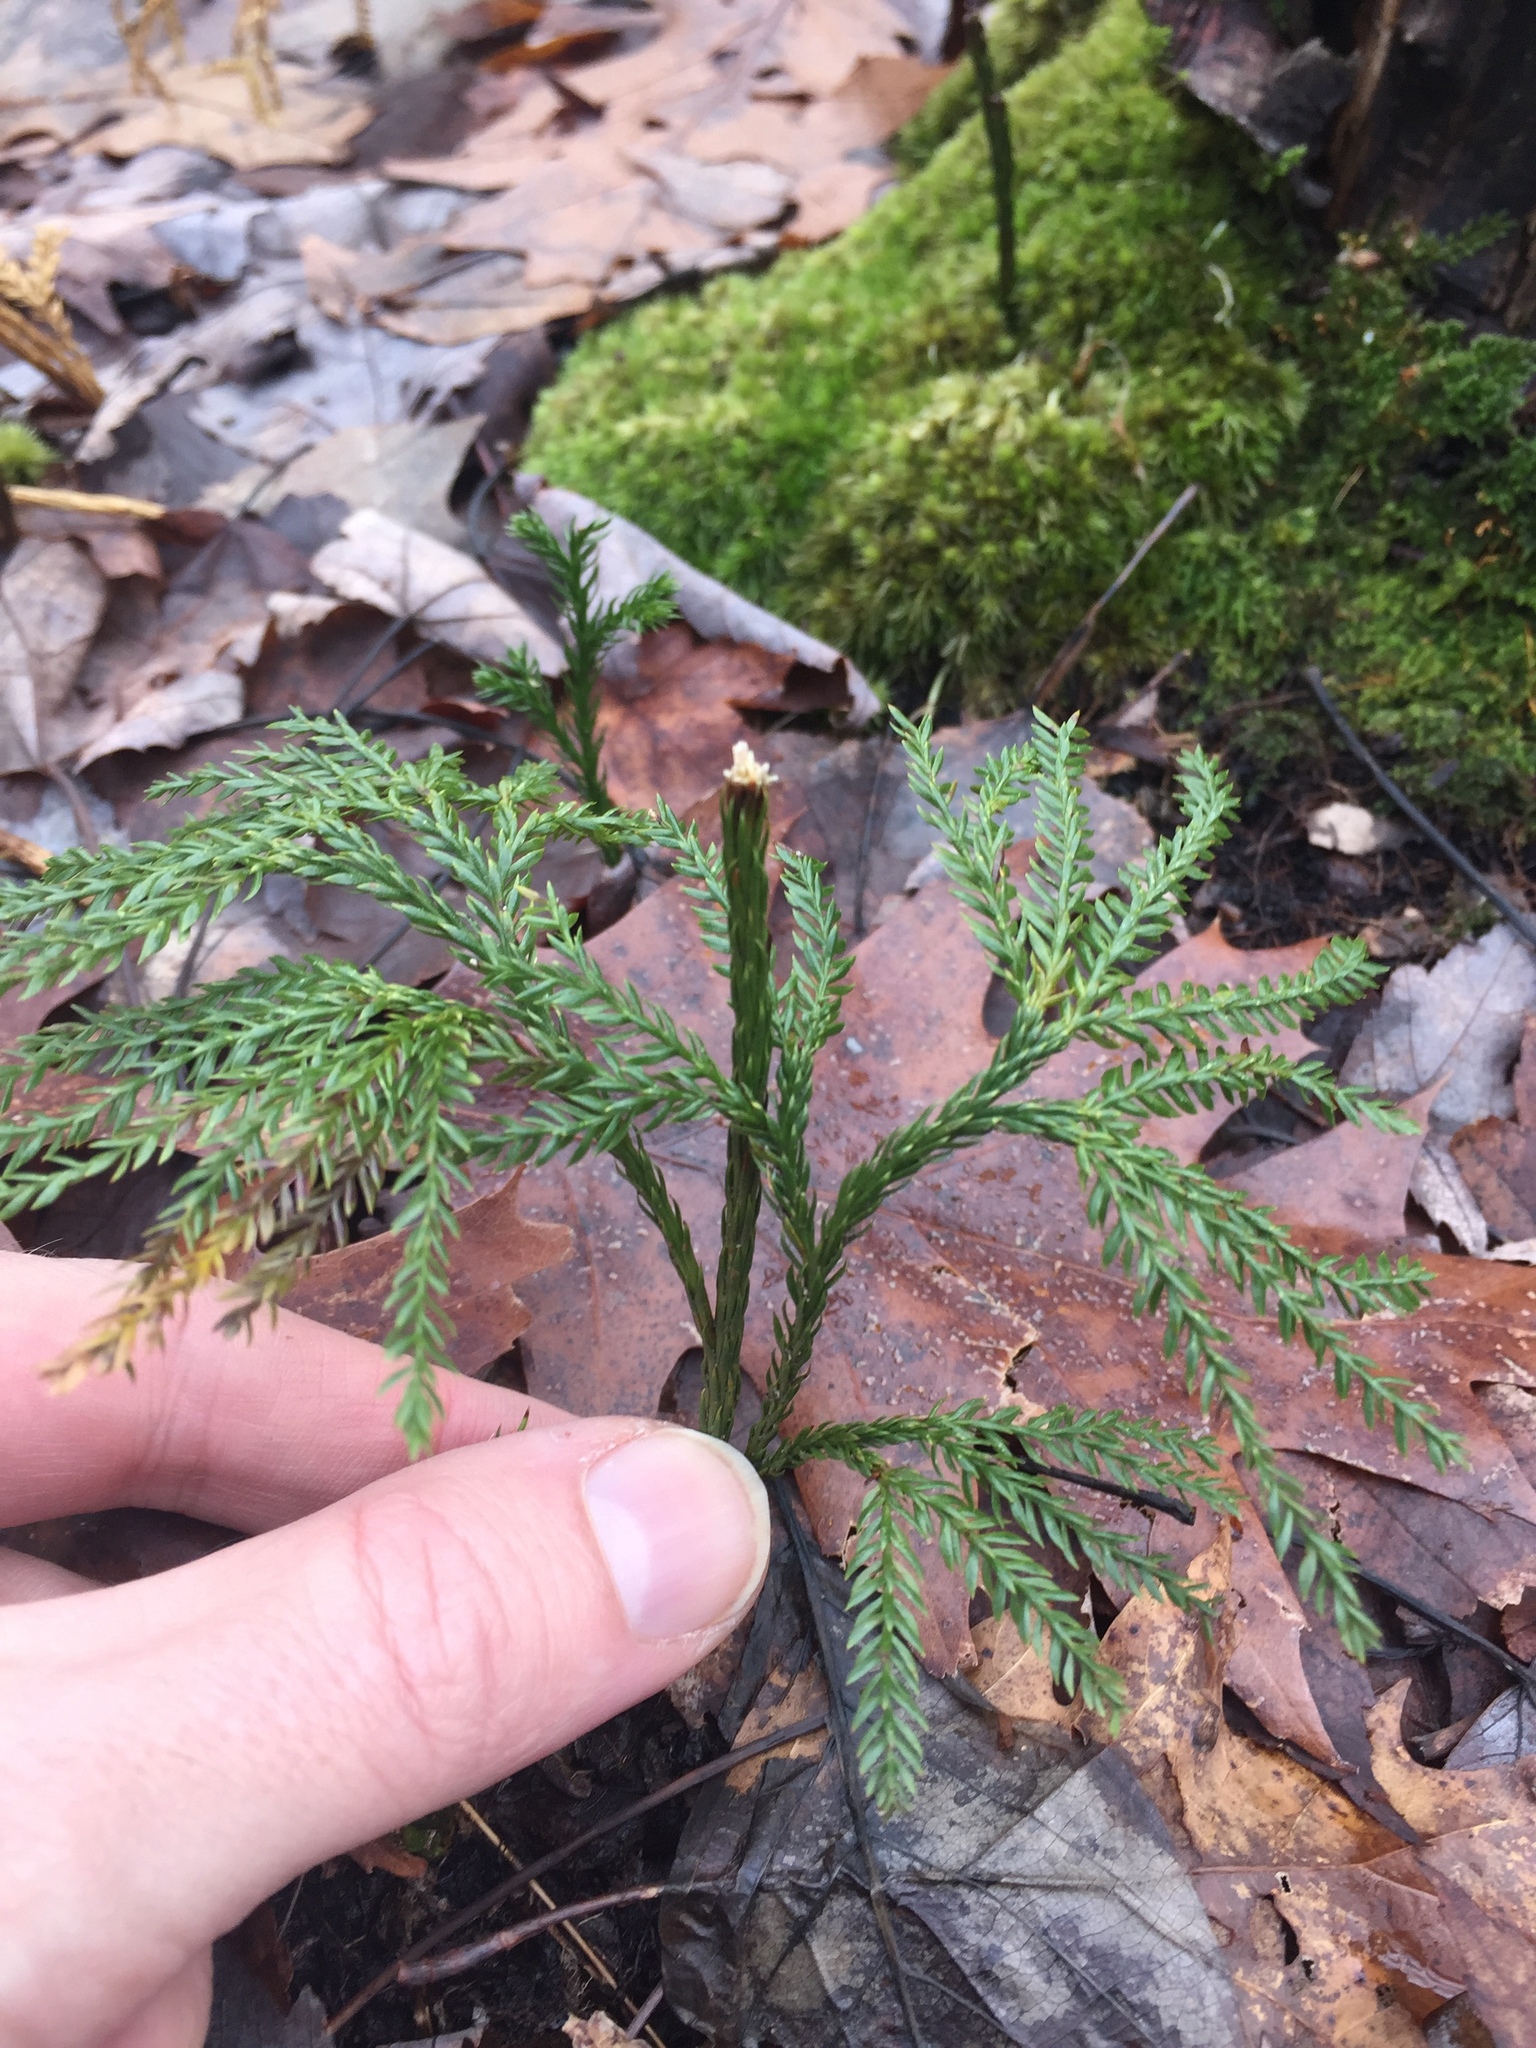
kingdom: Plantae
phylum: Tracheophyta
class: Lycopodiopsida
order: Lycopodiales
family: Lycopodiaceae
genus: Dendrolycopodium
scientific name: Dendrolycopodium obscurum
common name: Common ground-pine
